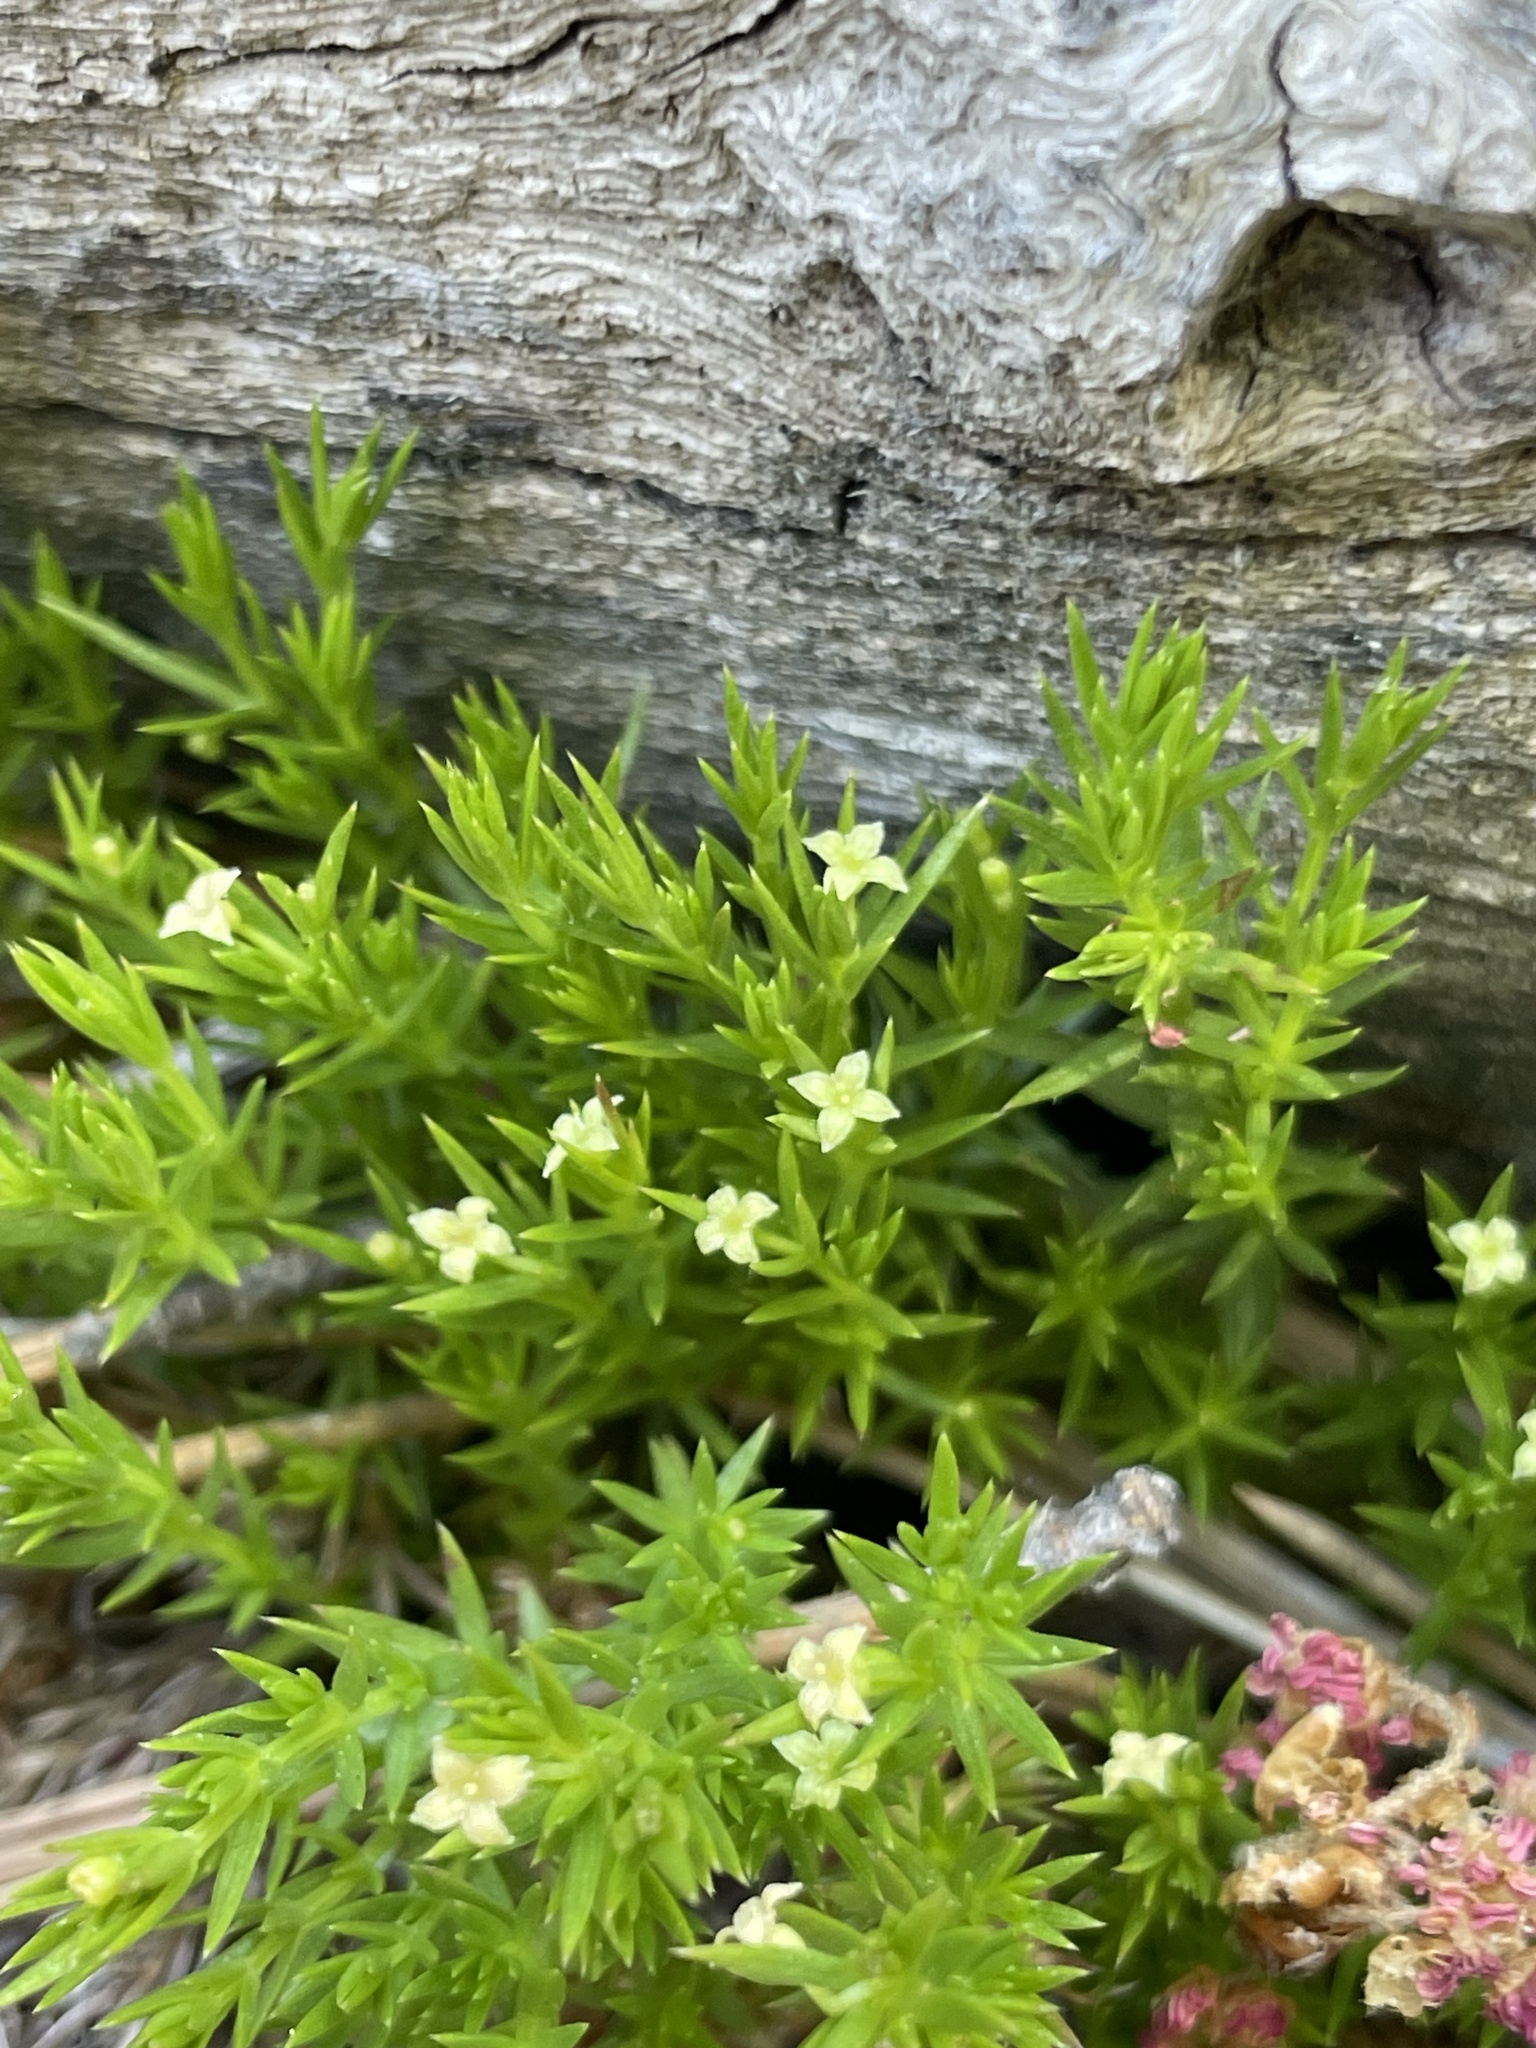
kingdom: Plantae
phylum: Tracheophyta
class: Magnoliopsida
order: Gentianales
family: Rubiaceae
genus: Galium
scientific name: Galium andrewsii
